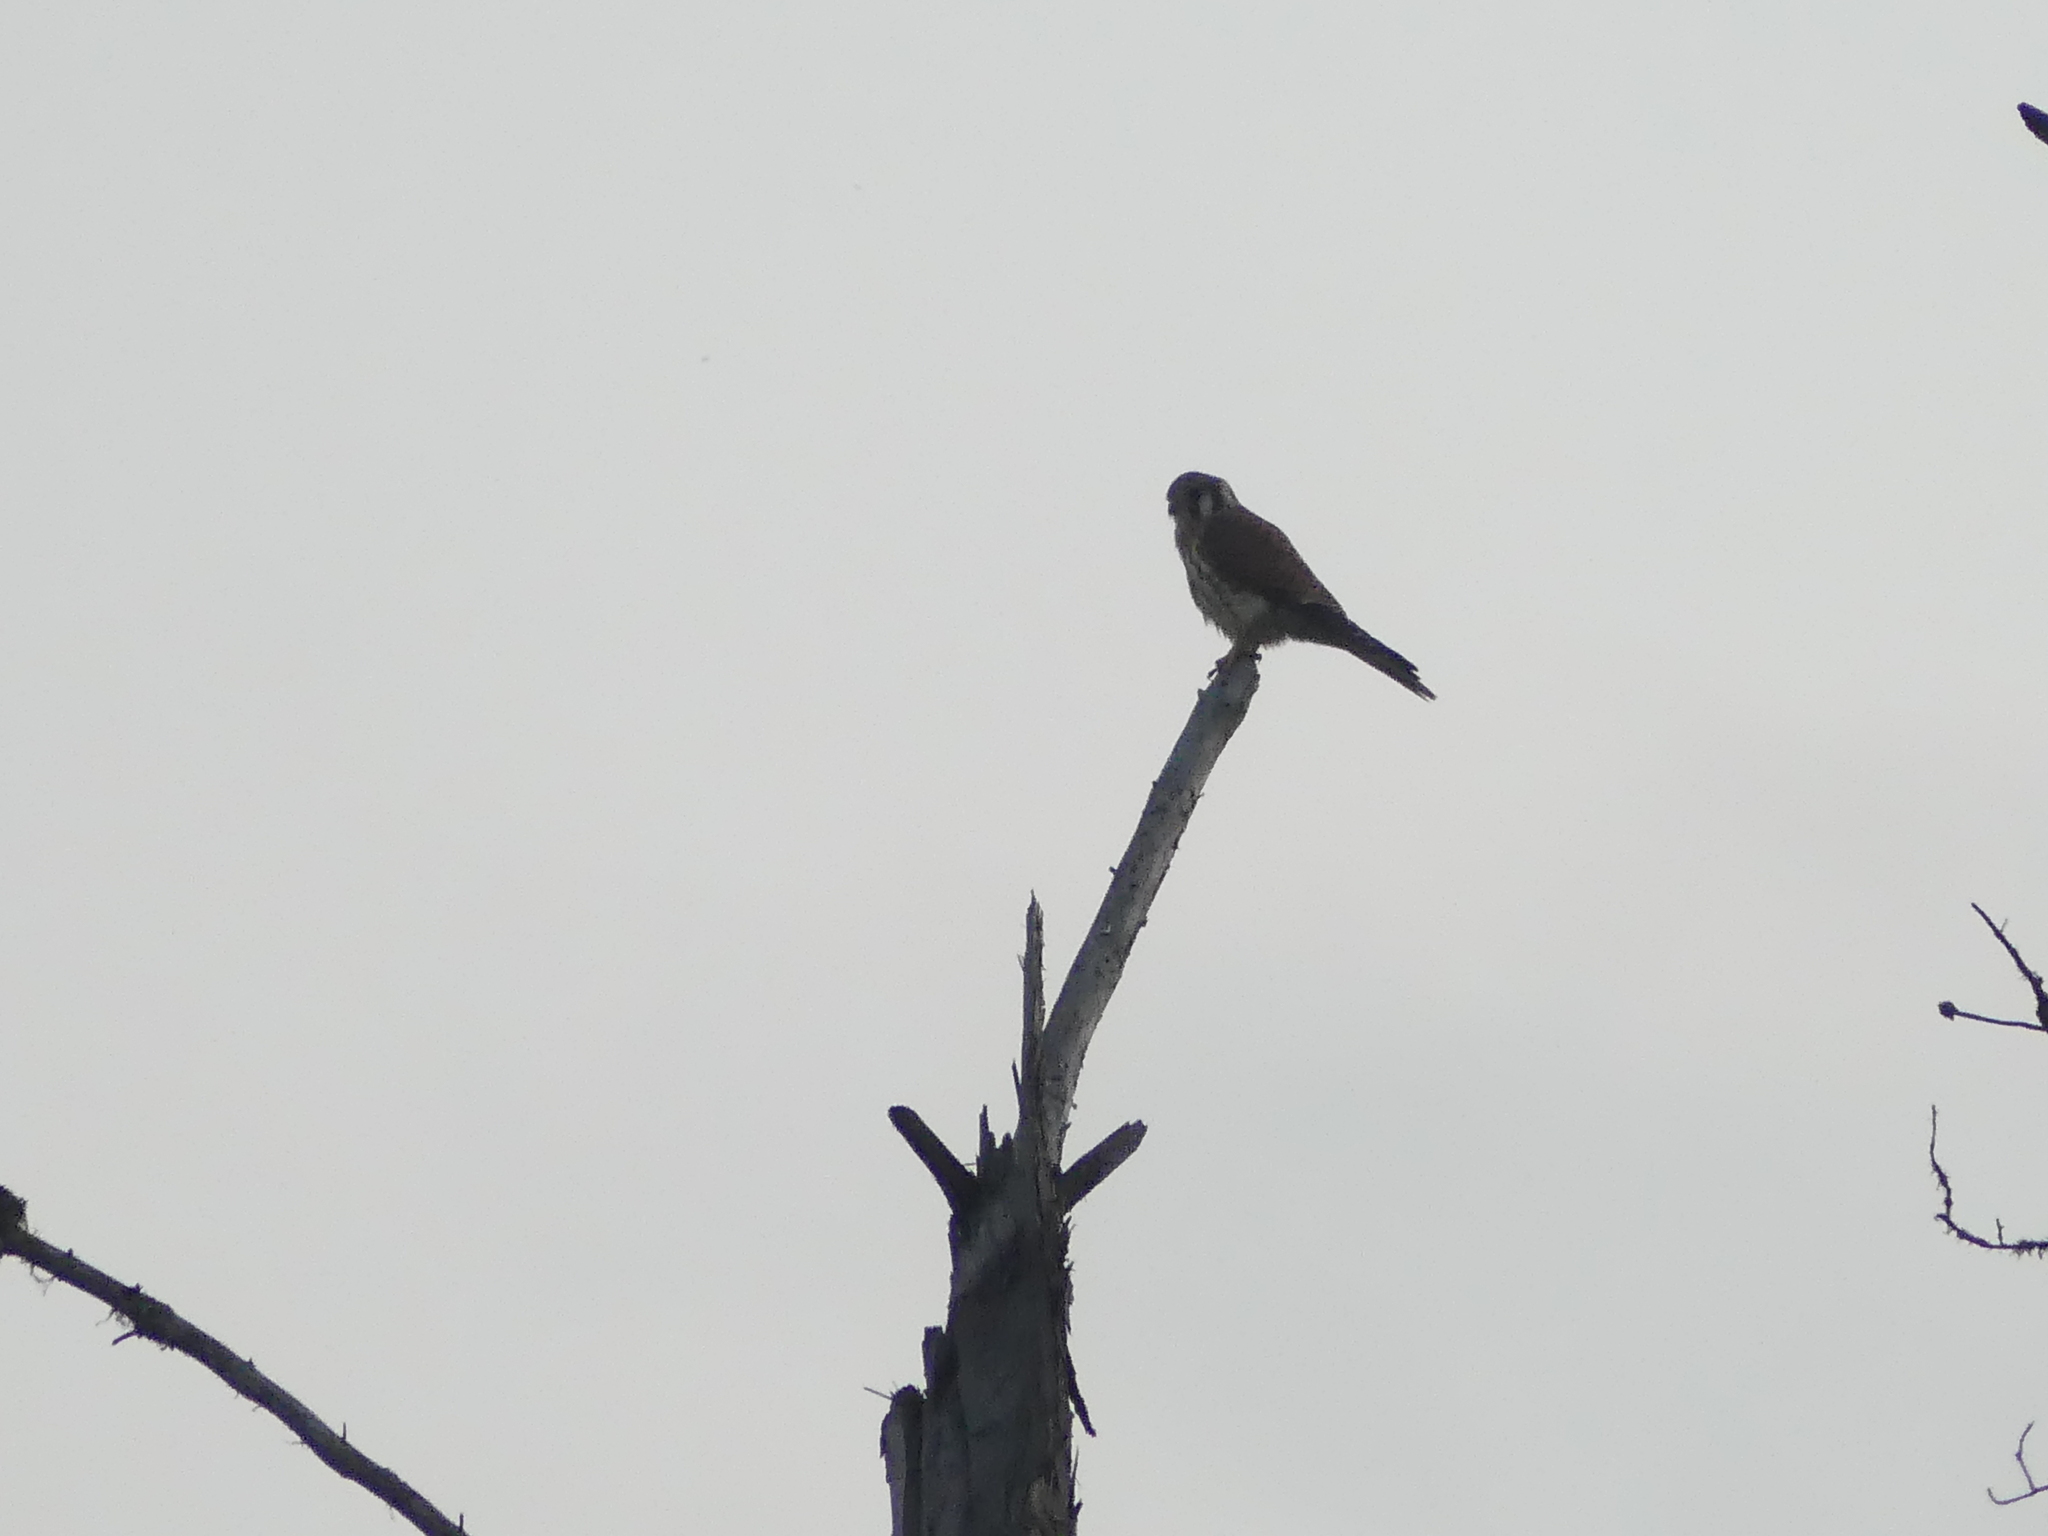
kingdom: Animalia
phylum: Chordata
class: Aves
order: Falconiformes
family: Falconidae
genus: Falco
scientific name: Falco sparverius
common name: American kestrel
